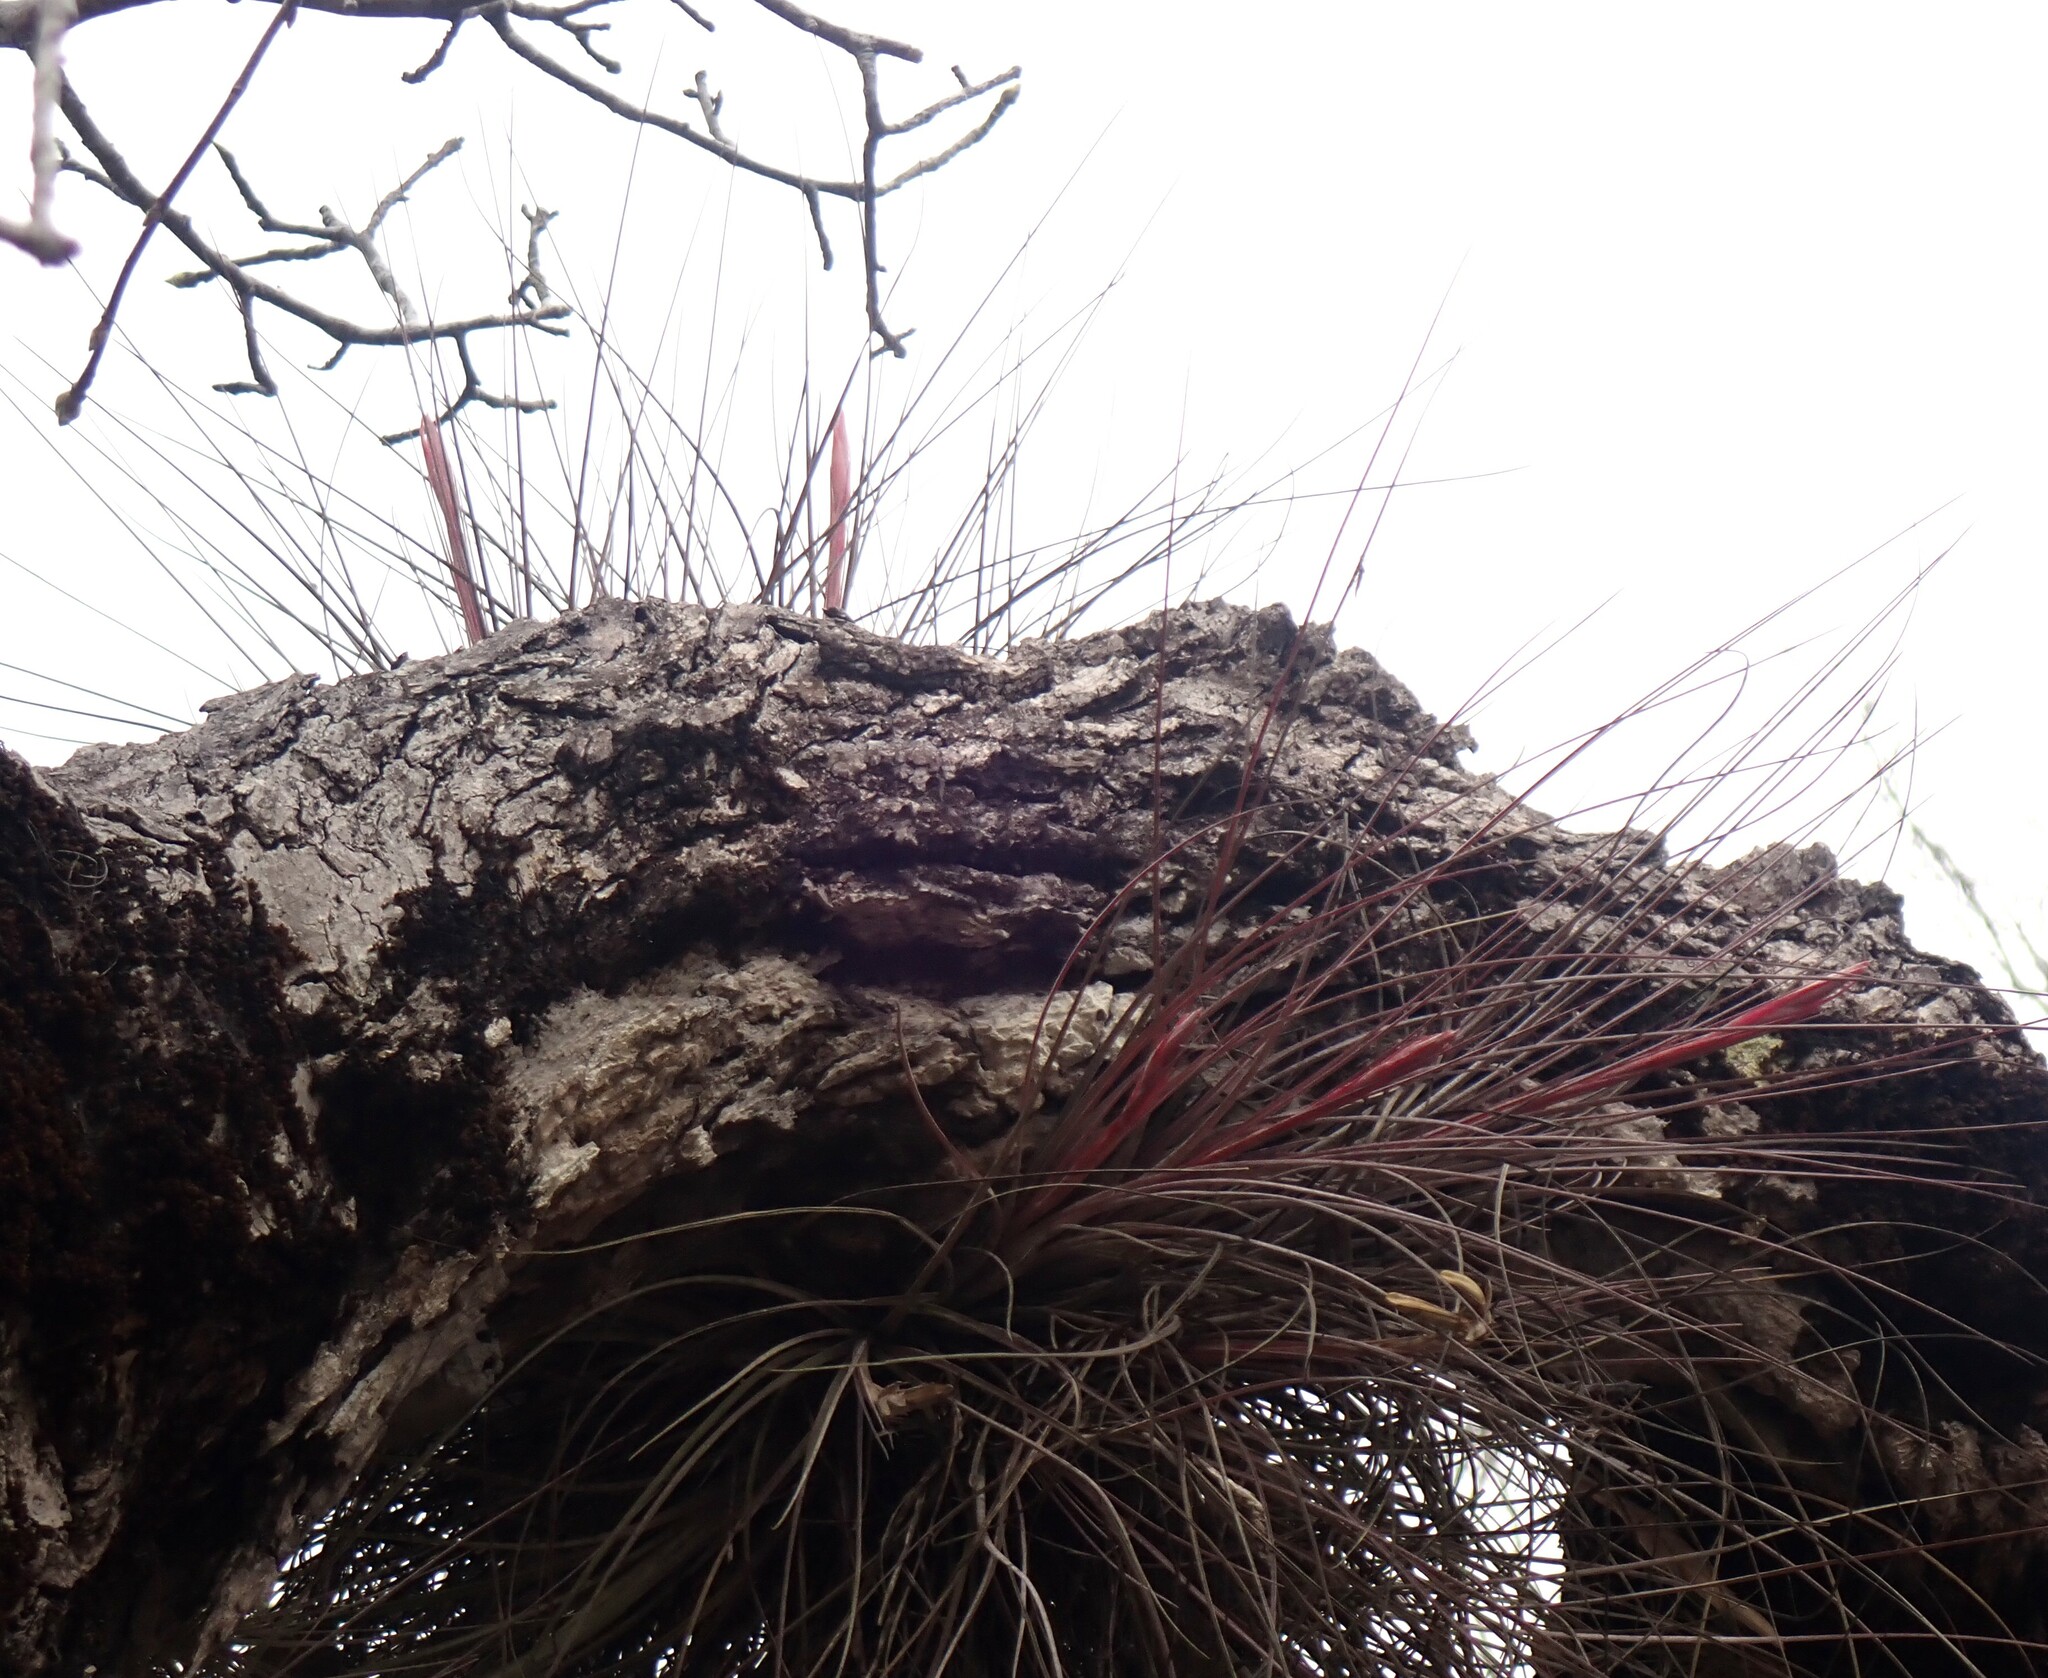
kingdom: Plantae
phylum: Tracheophyta
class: Liliopsida
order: Poales
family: Bromeliaceae
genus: Tillandsia
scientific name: Tillandsia bartramii
